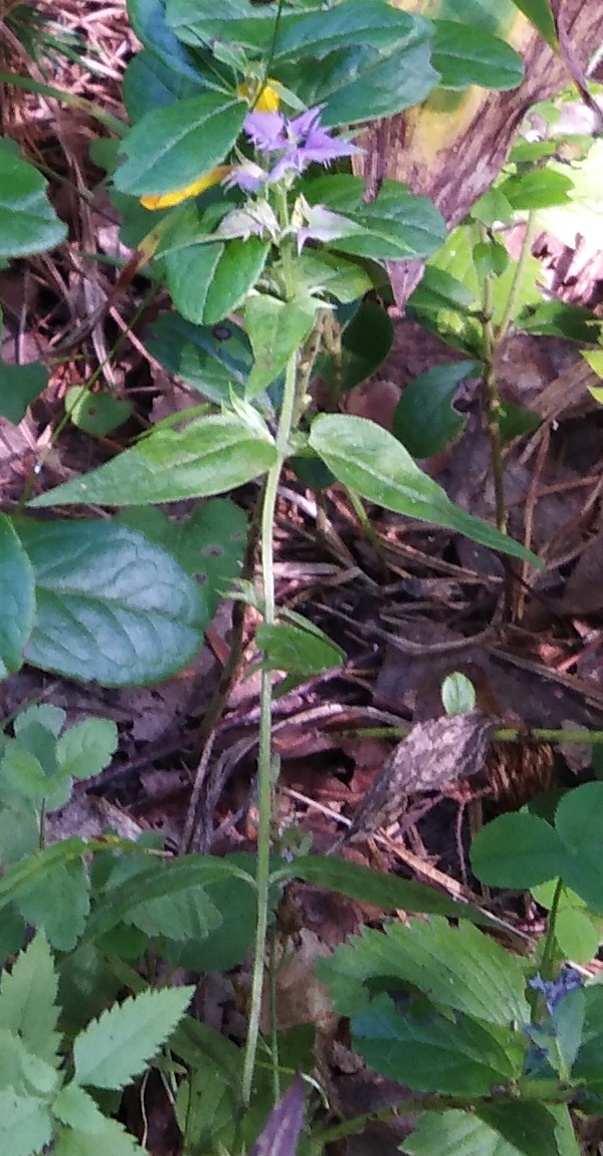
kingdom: Plantae
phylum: Tracheophyta
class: Magnoliopsida
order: Lamiales
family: Orobanchaceae
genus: Melampyrum
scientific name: Melampyrum nemorosum
